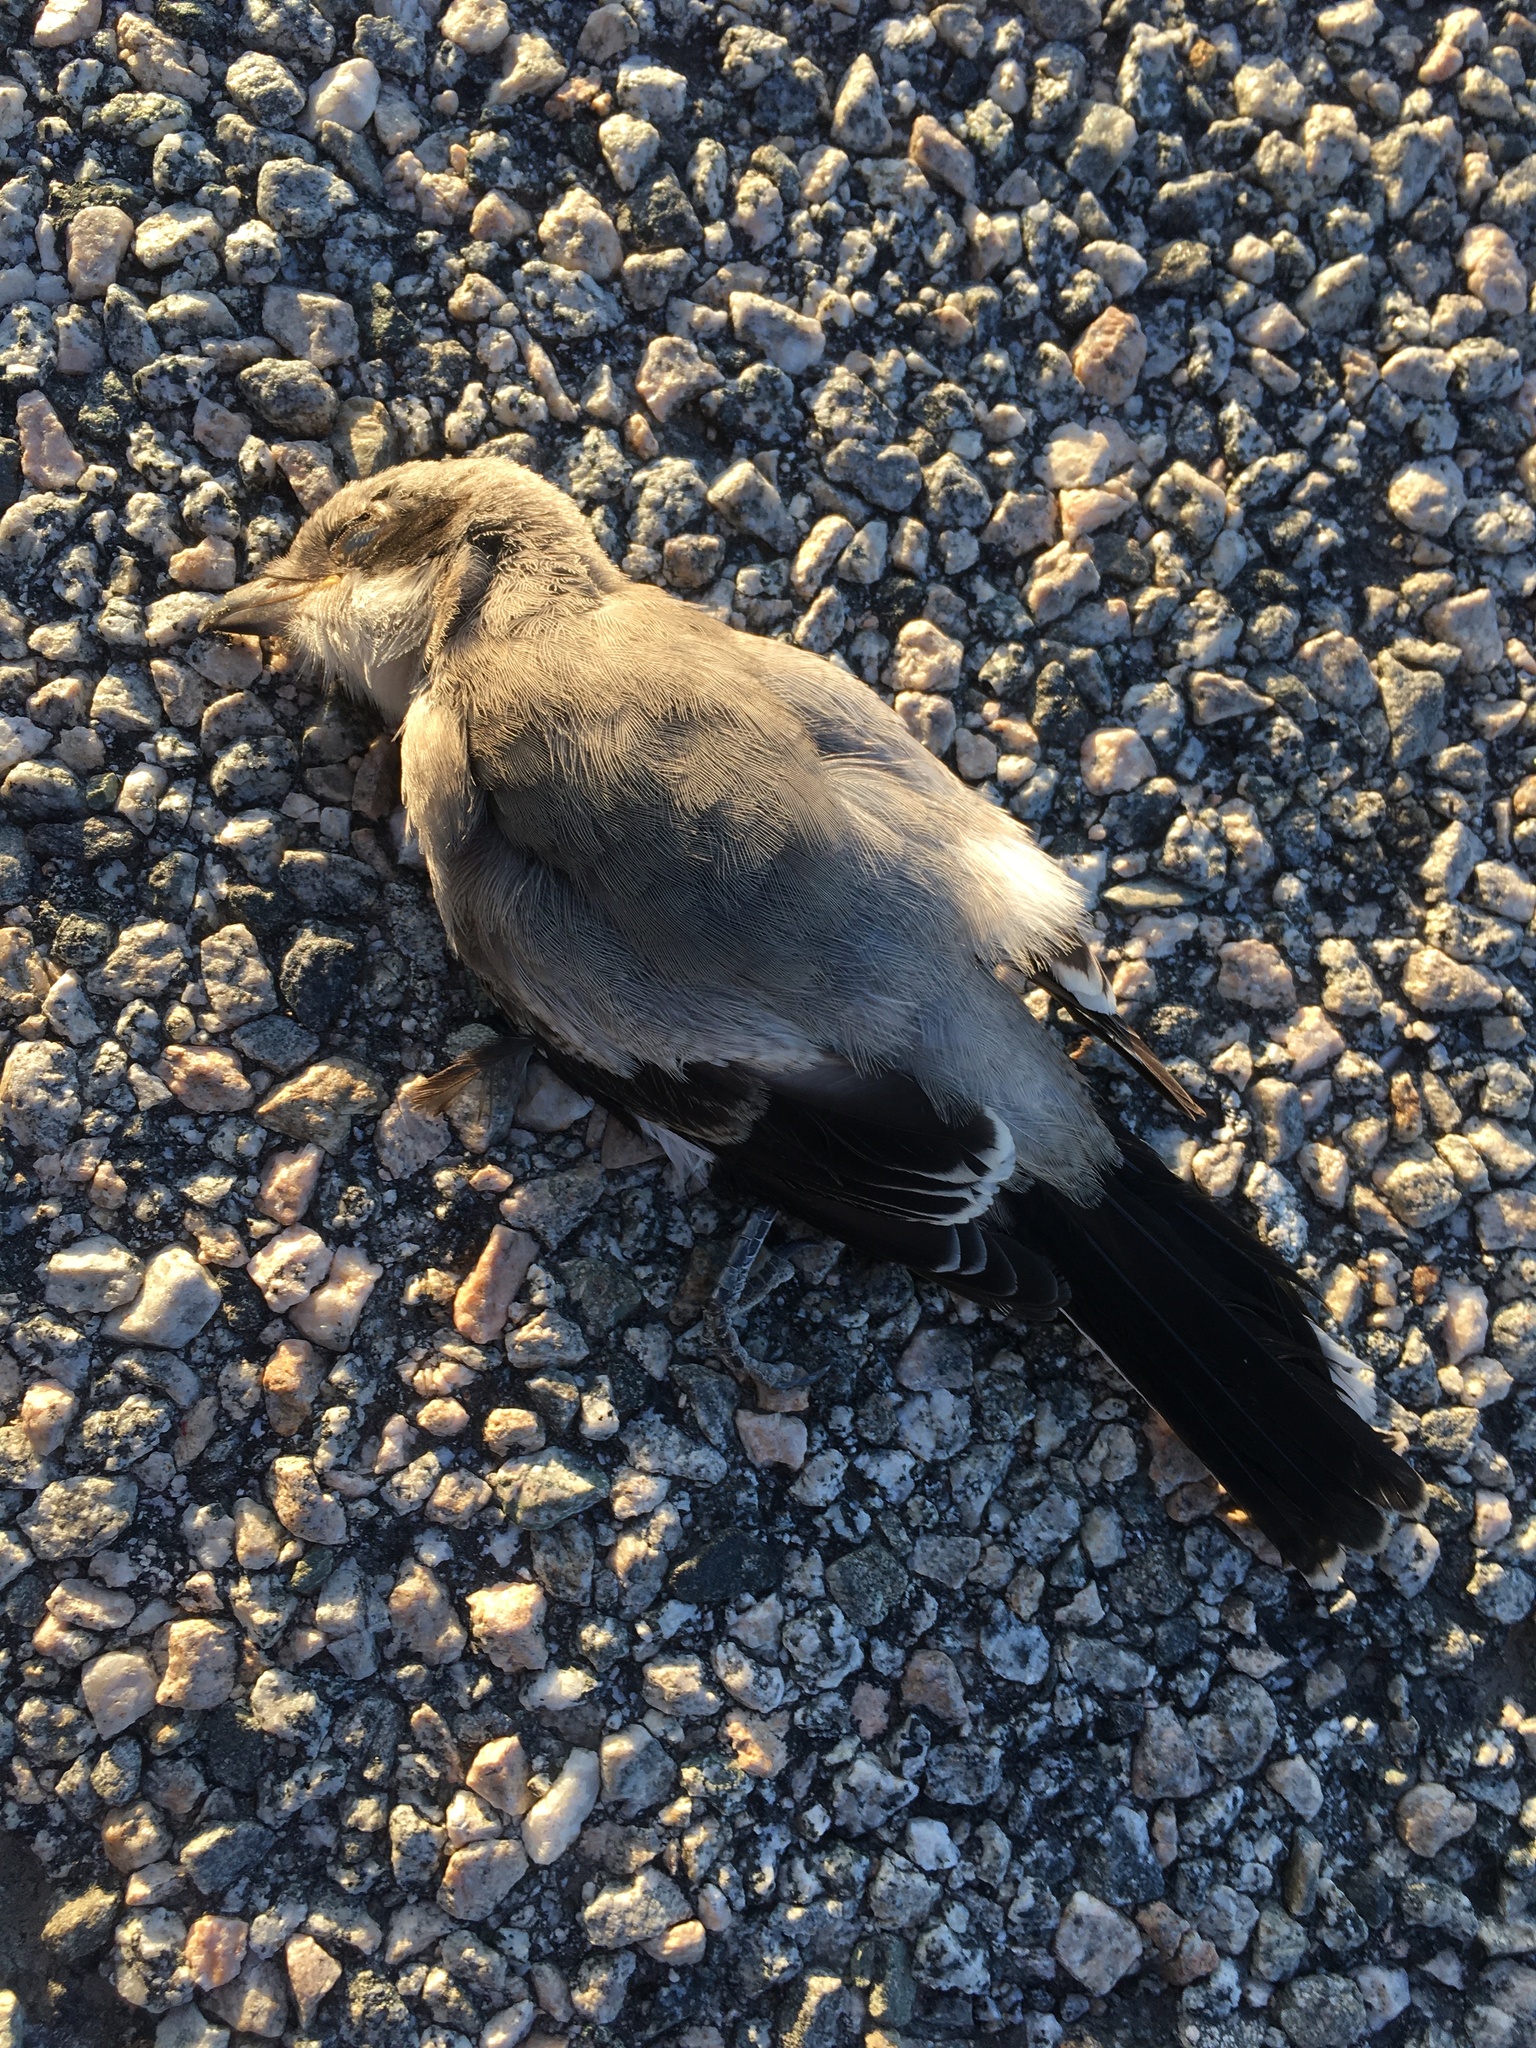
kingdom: Animalia
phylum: Chordata
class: Aves
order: Passeriformes
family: Laniidae
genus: Lanius
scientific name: Lanius ludovicianus
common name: Loggerhead shrike
